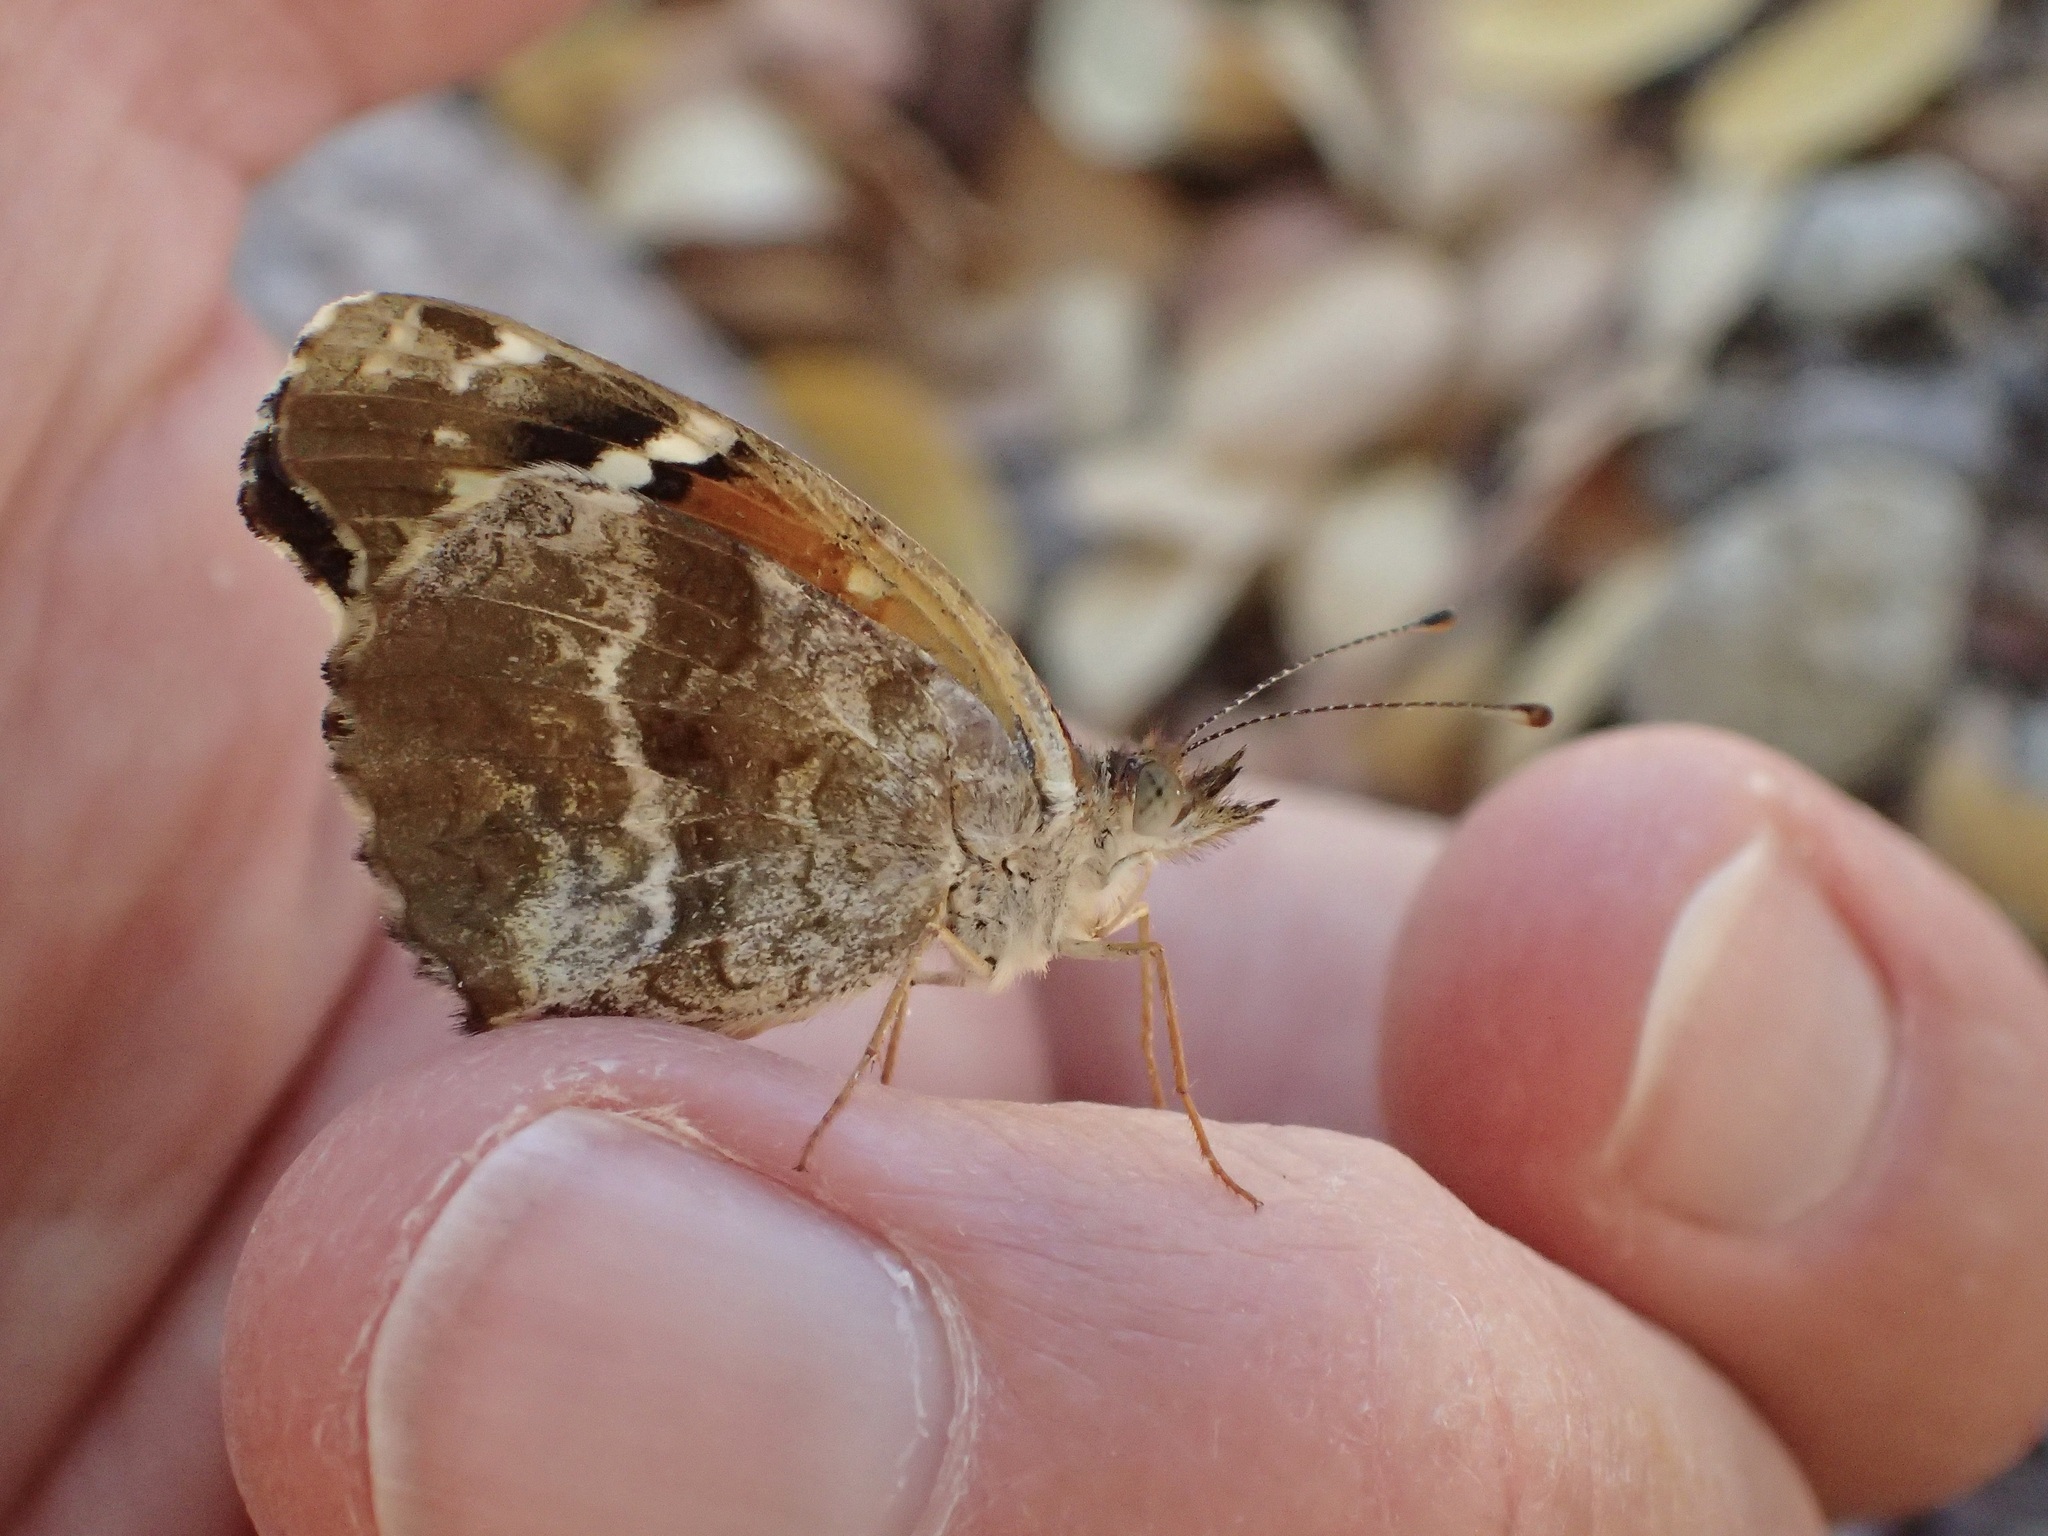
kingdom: Animalia
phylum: Arthropoda
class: Insecta
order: Lepidoptera
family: Nymphalidae
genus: Anthanassa
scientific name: Anthanassa texana
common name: Texan crescent
